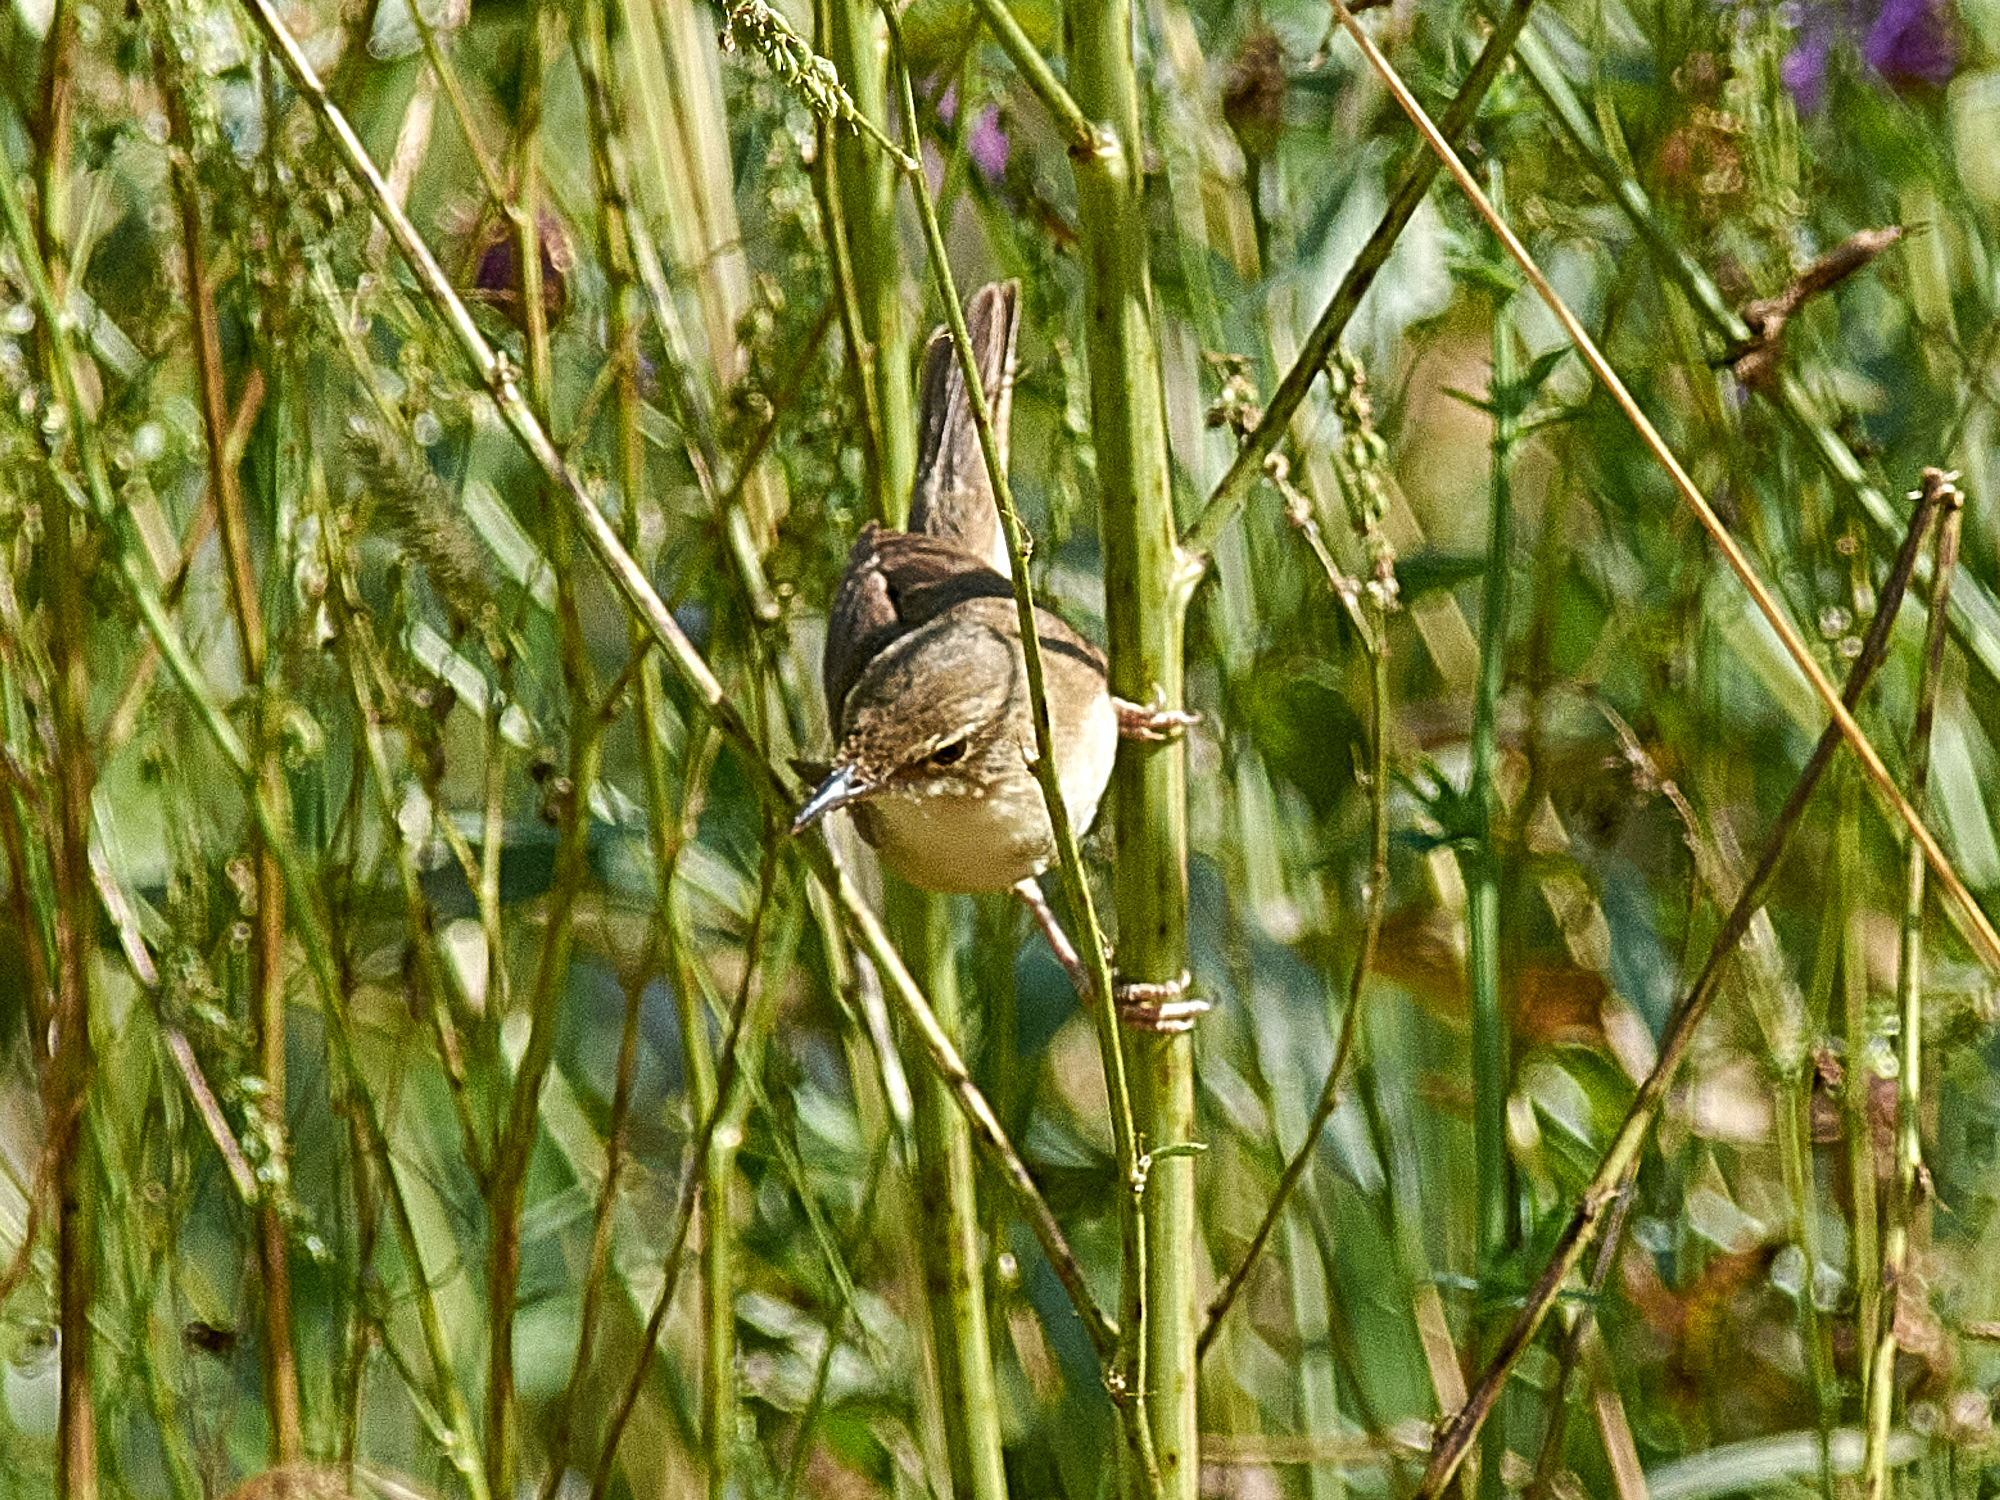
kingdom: Animalia
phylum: Chordata
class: Aves
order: Passeriformes
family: Acrocephalidae
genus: Acrocephalus
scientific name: Acrocephalus dumetorum
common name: Blyth's reed warbler
